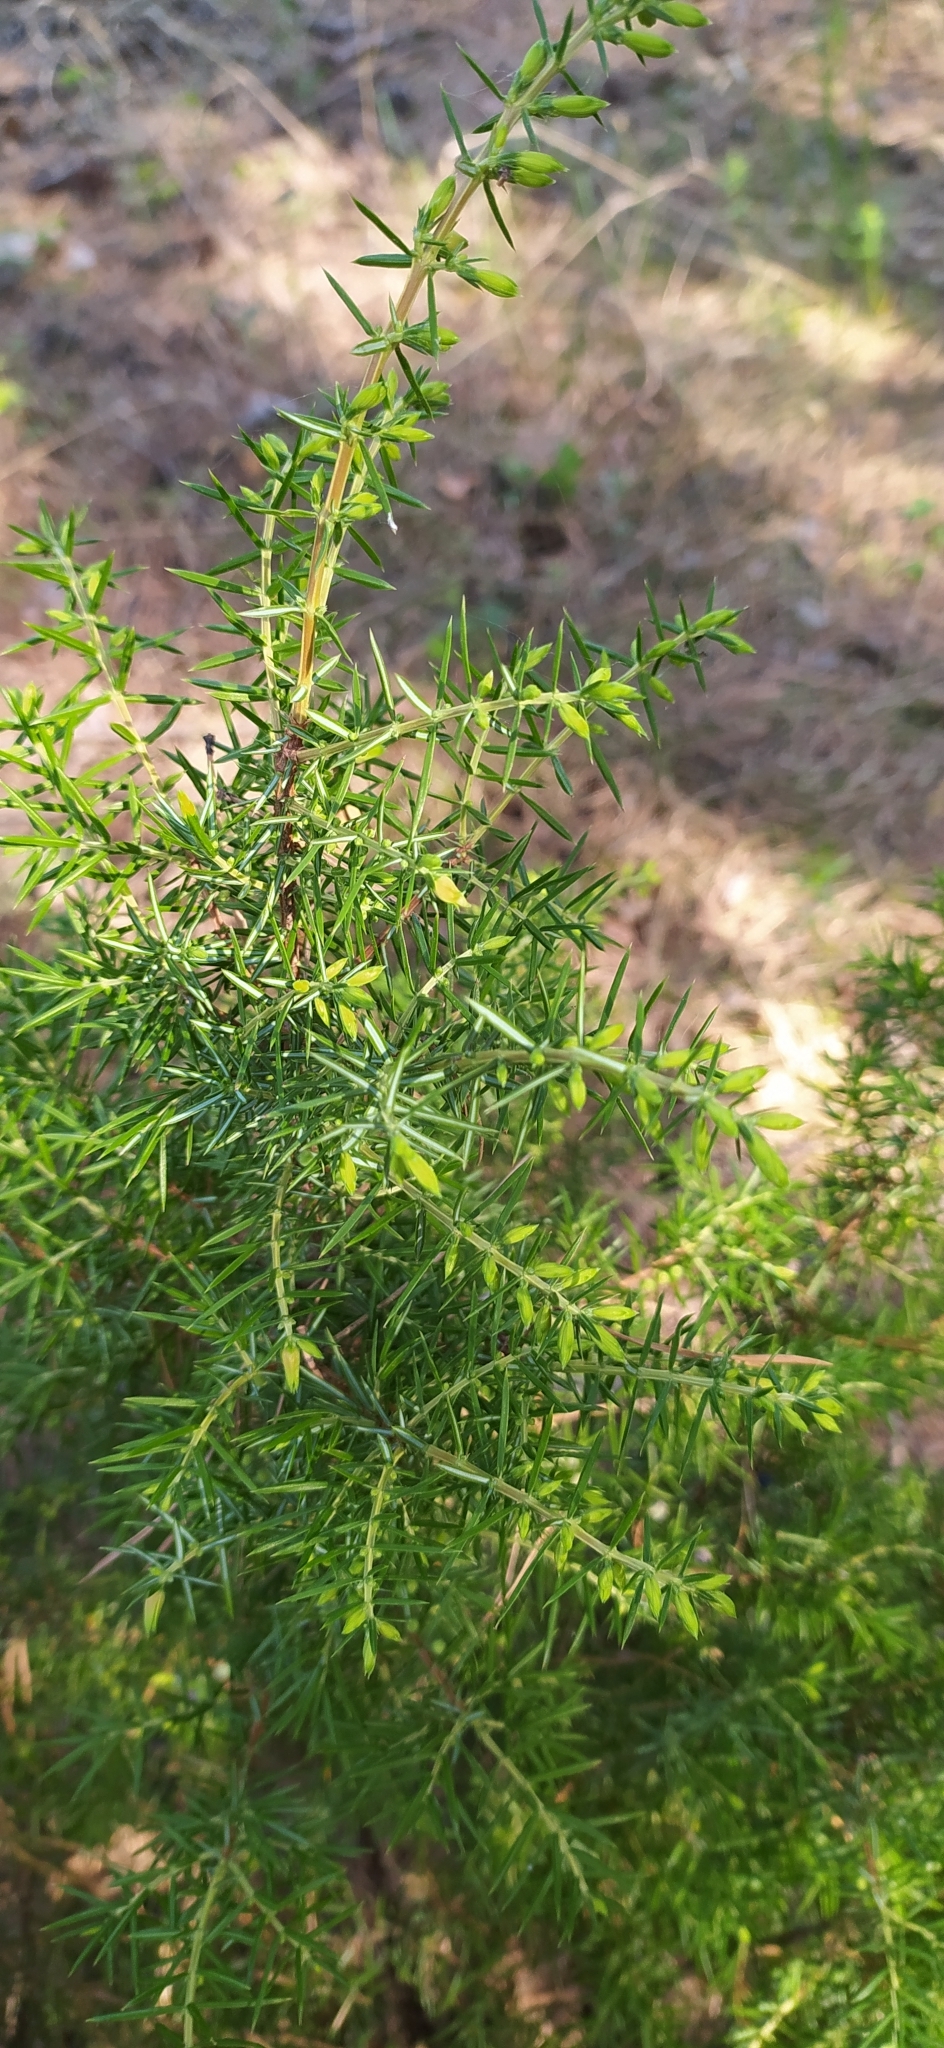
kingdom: Plantae
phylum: Tracheophyta
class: Pinopsida
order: Pinales
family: Cupressaceae
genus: Juniperus
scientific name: Juniperus communis
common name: Common juniper
